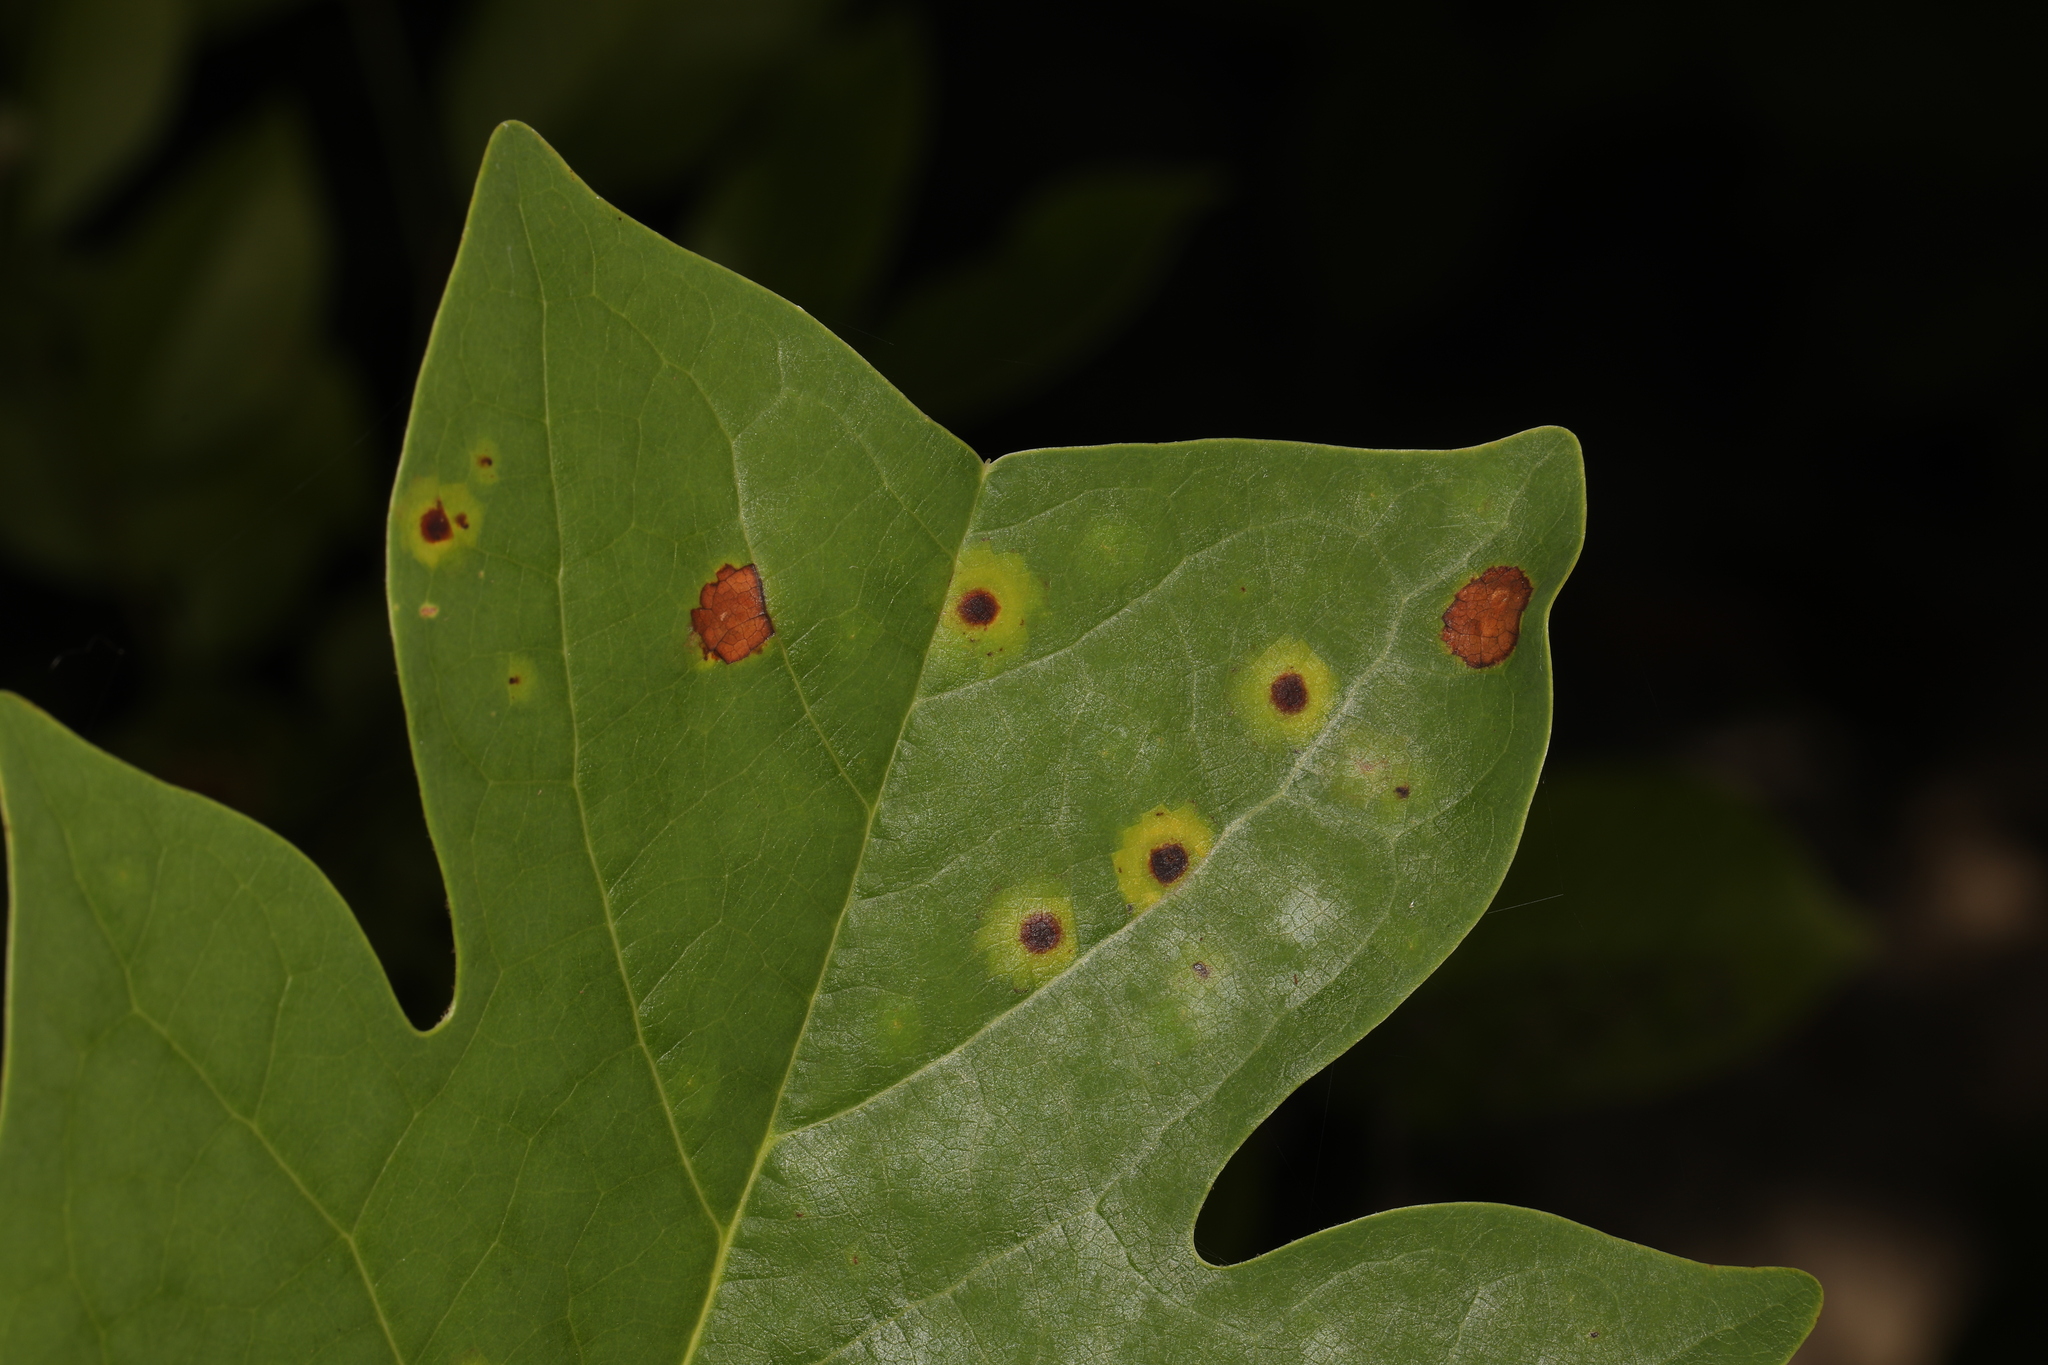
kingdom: Animalia
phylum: Arthropoda
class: Insecta
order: Diptera
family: Cecidomyiidae
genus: Resseliella
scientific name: Resseliella liriodendri
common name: Tulip tree leaf spot gall midge
